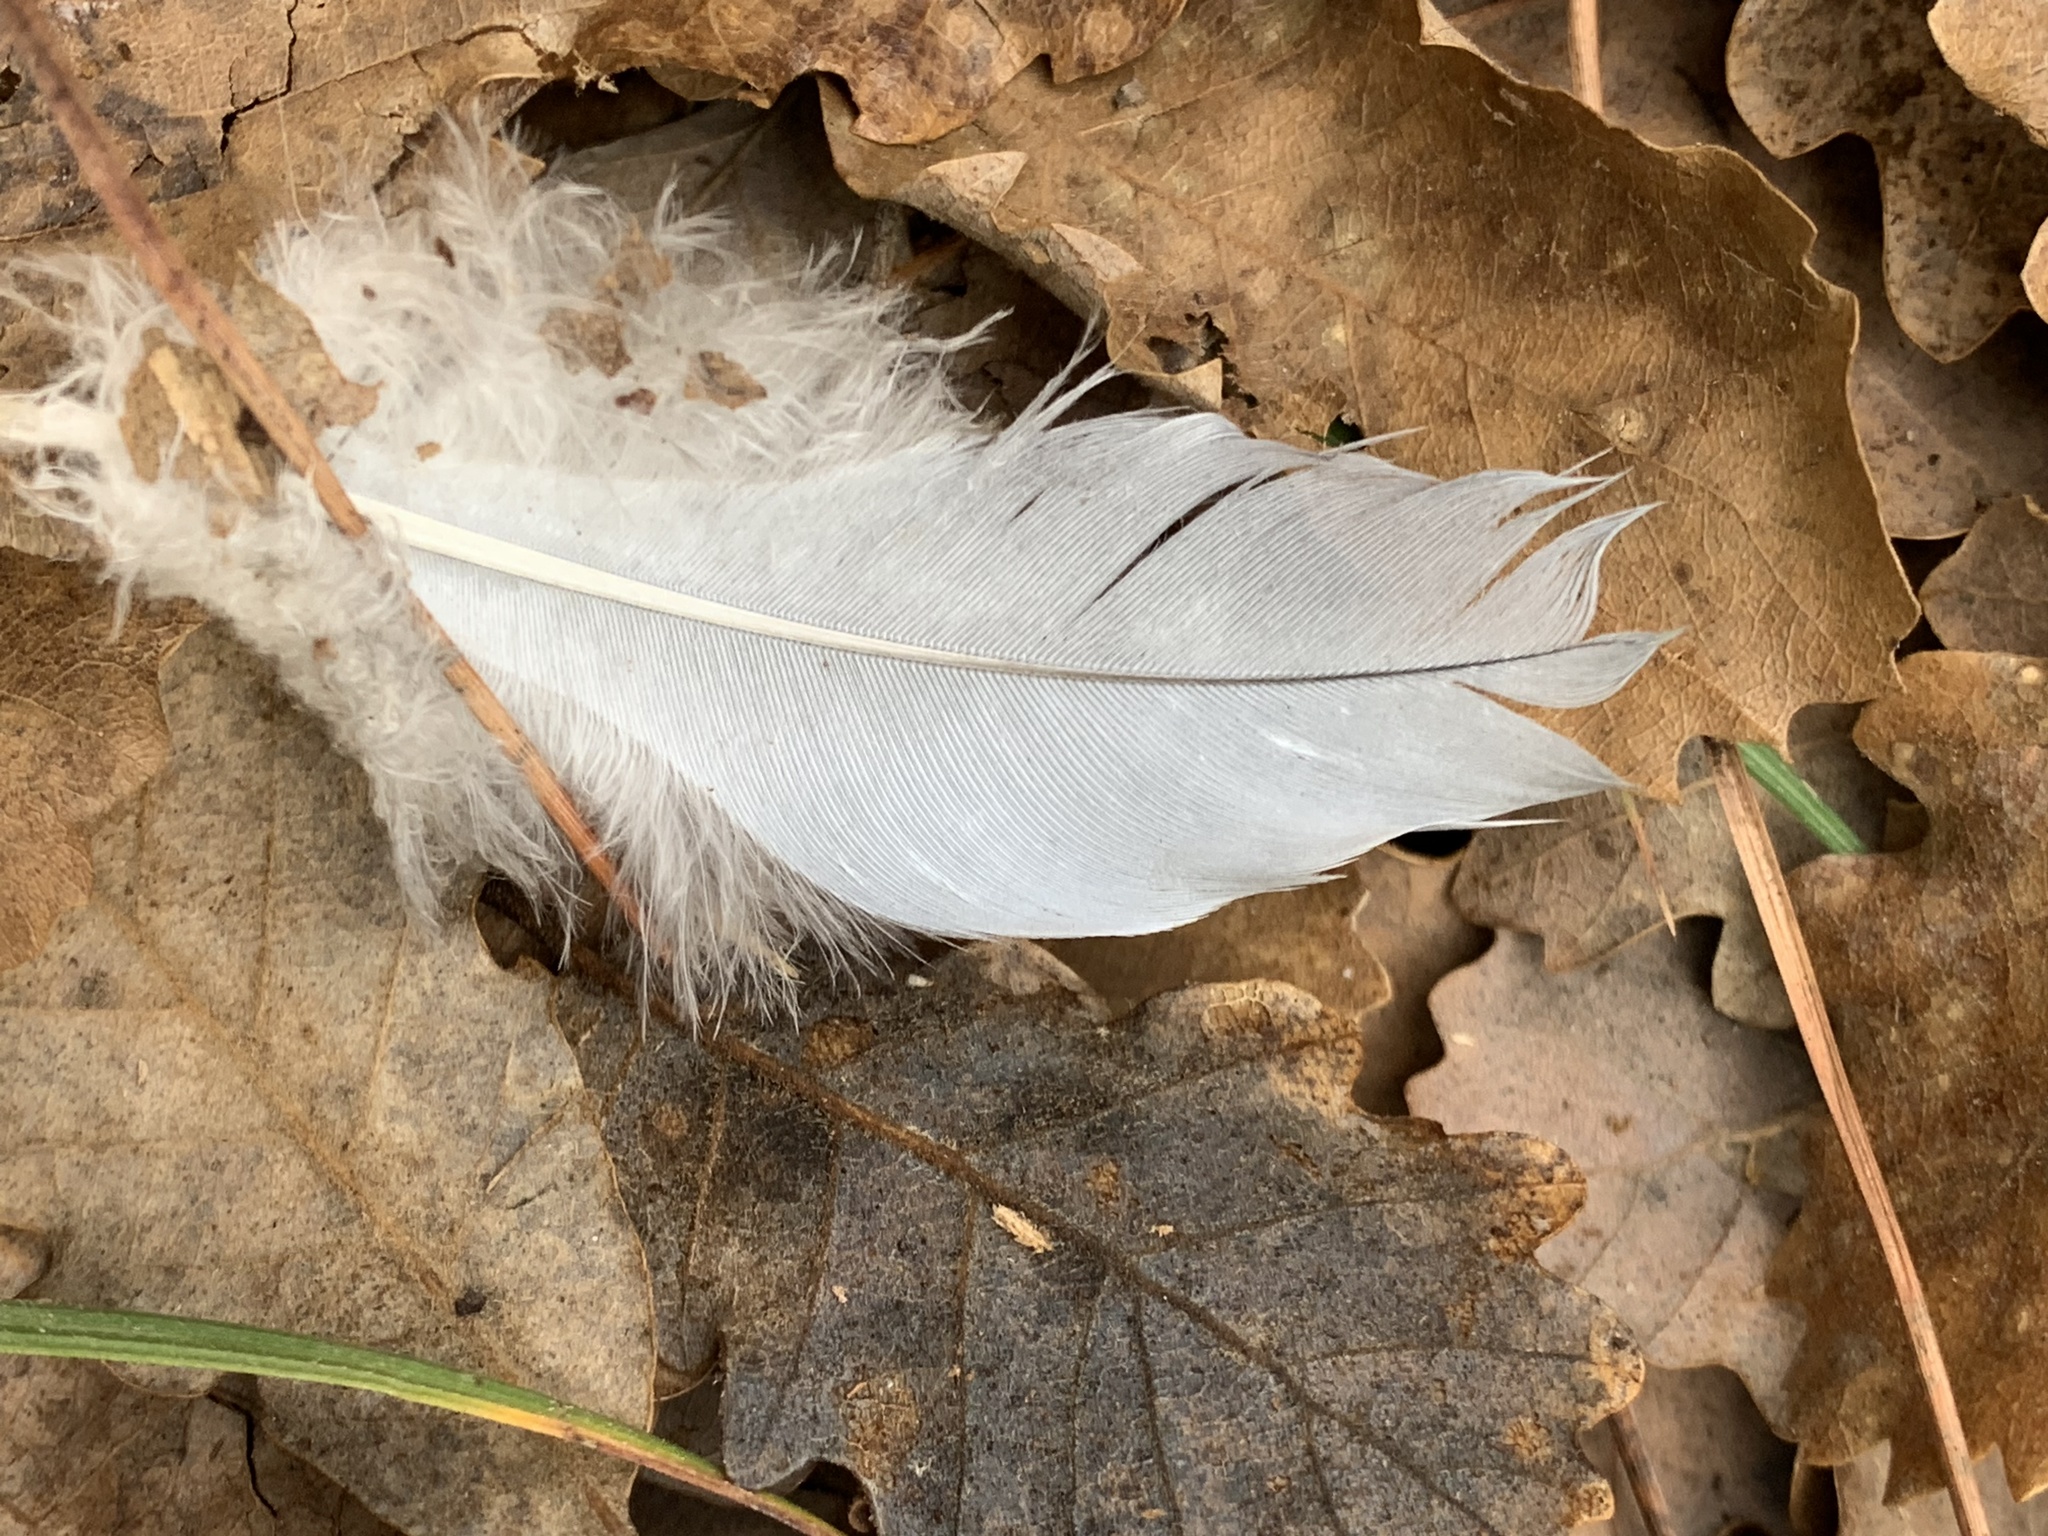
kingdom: Animalia
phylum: Chordata
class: Aves
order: Columbiformes
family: Columbidae
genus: Columba
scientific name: Columba palumbus
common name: Common wood pigeon
